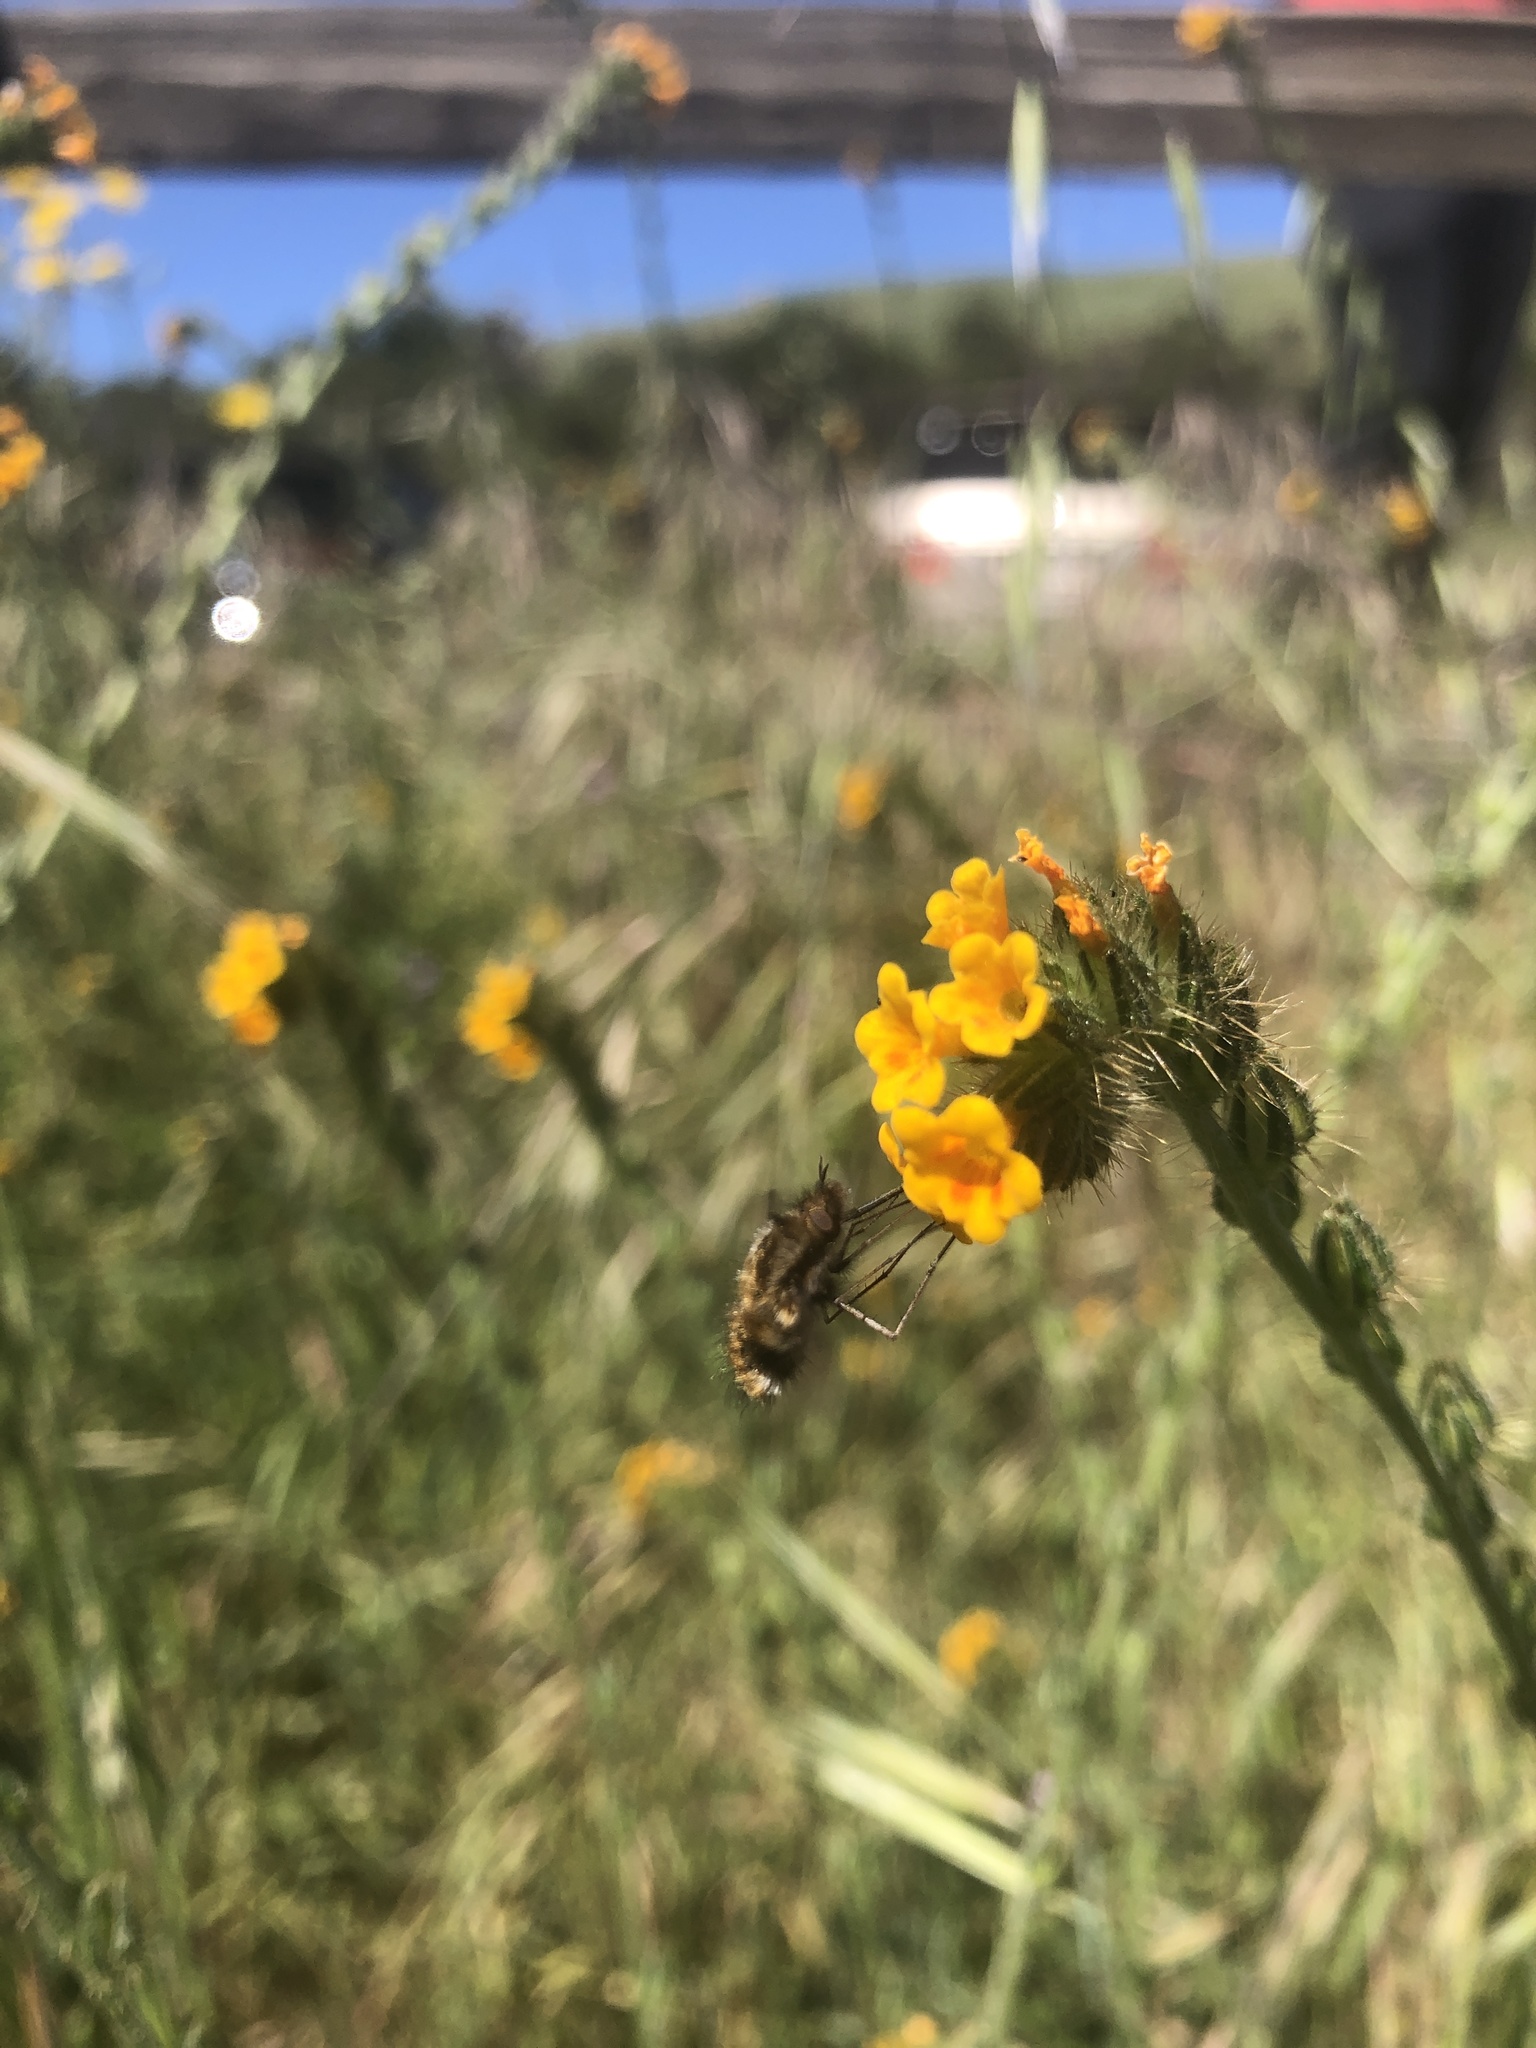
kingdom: Animalia
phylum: Arthropoda
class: Insecta
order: Diptera
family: Bombyliidae
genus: Bombylius
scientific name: Bombylius major
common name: Bee fly
